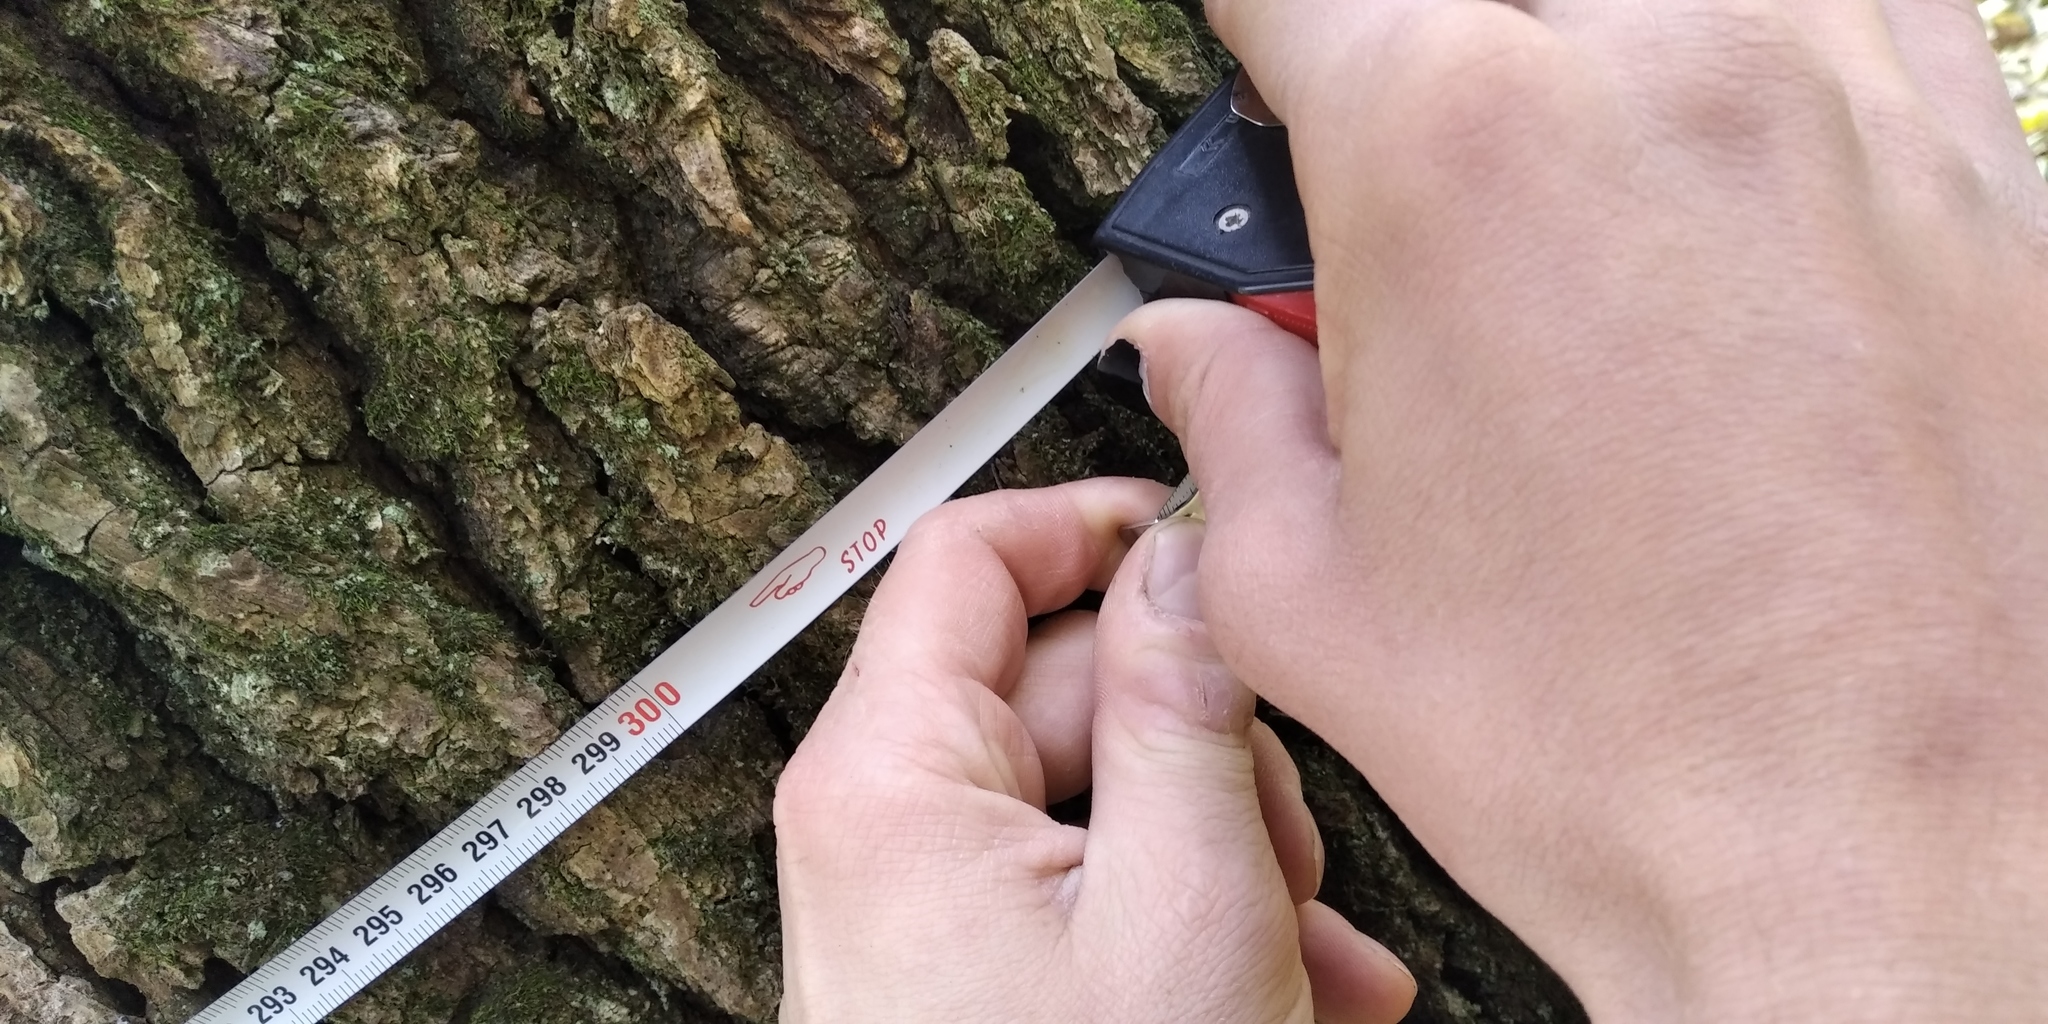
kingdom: Plantae
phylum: Tracheophyta
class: Magnoliopsida
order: Fagales
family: Fagaceae
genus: Quercus
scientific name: Quercus robur
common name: Pedunculate oak
